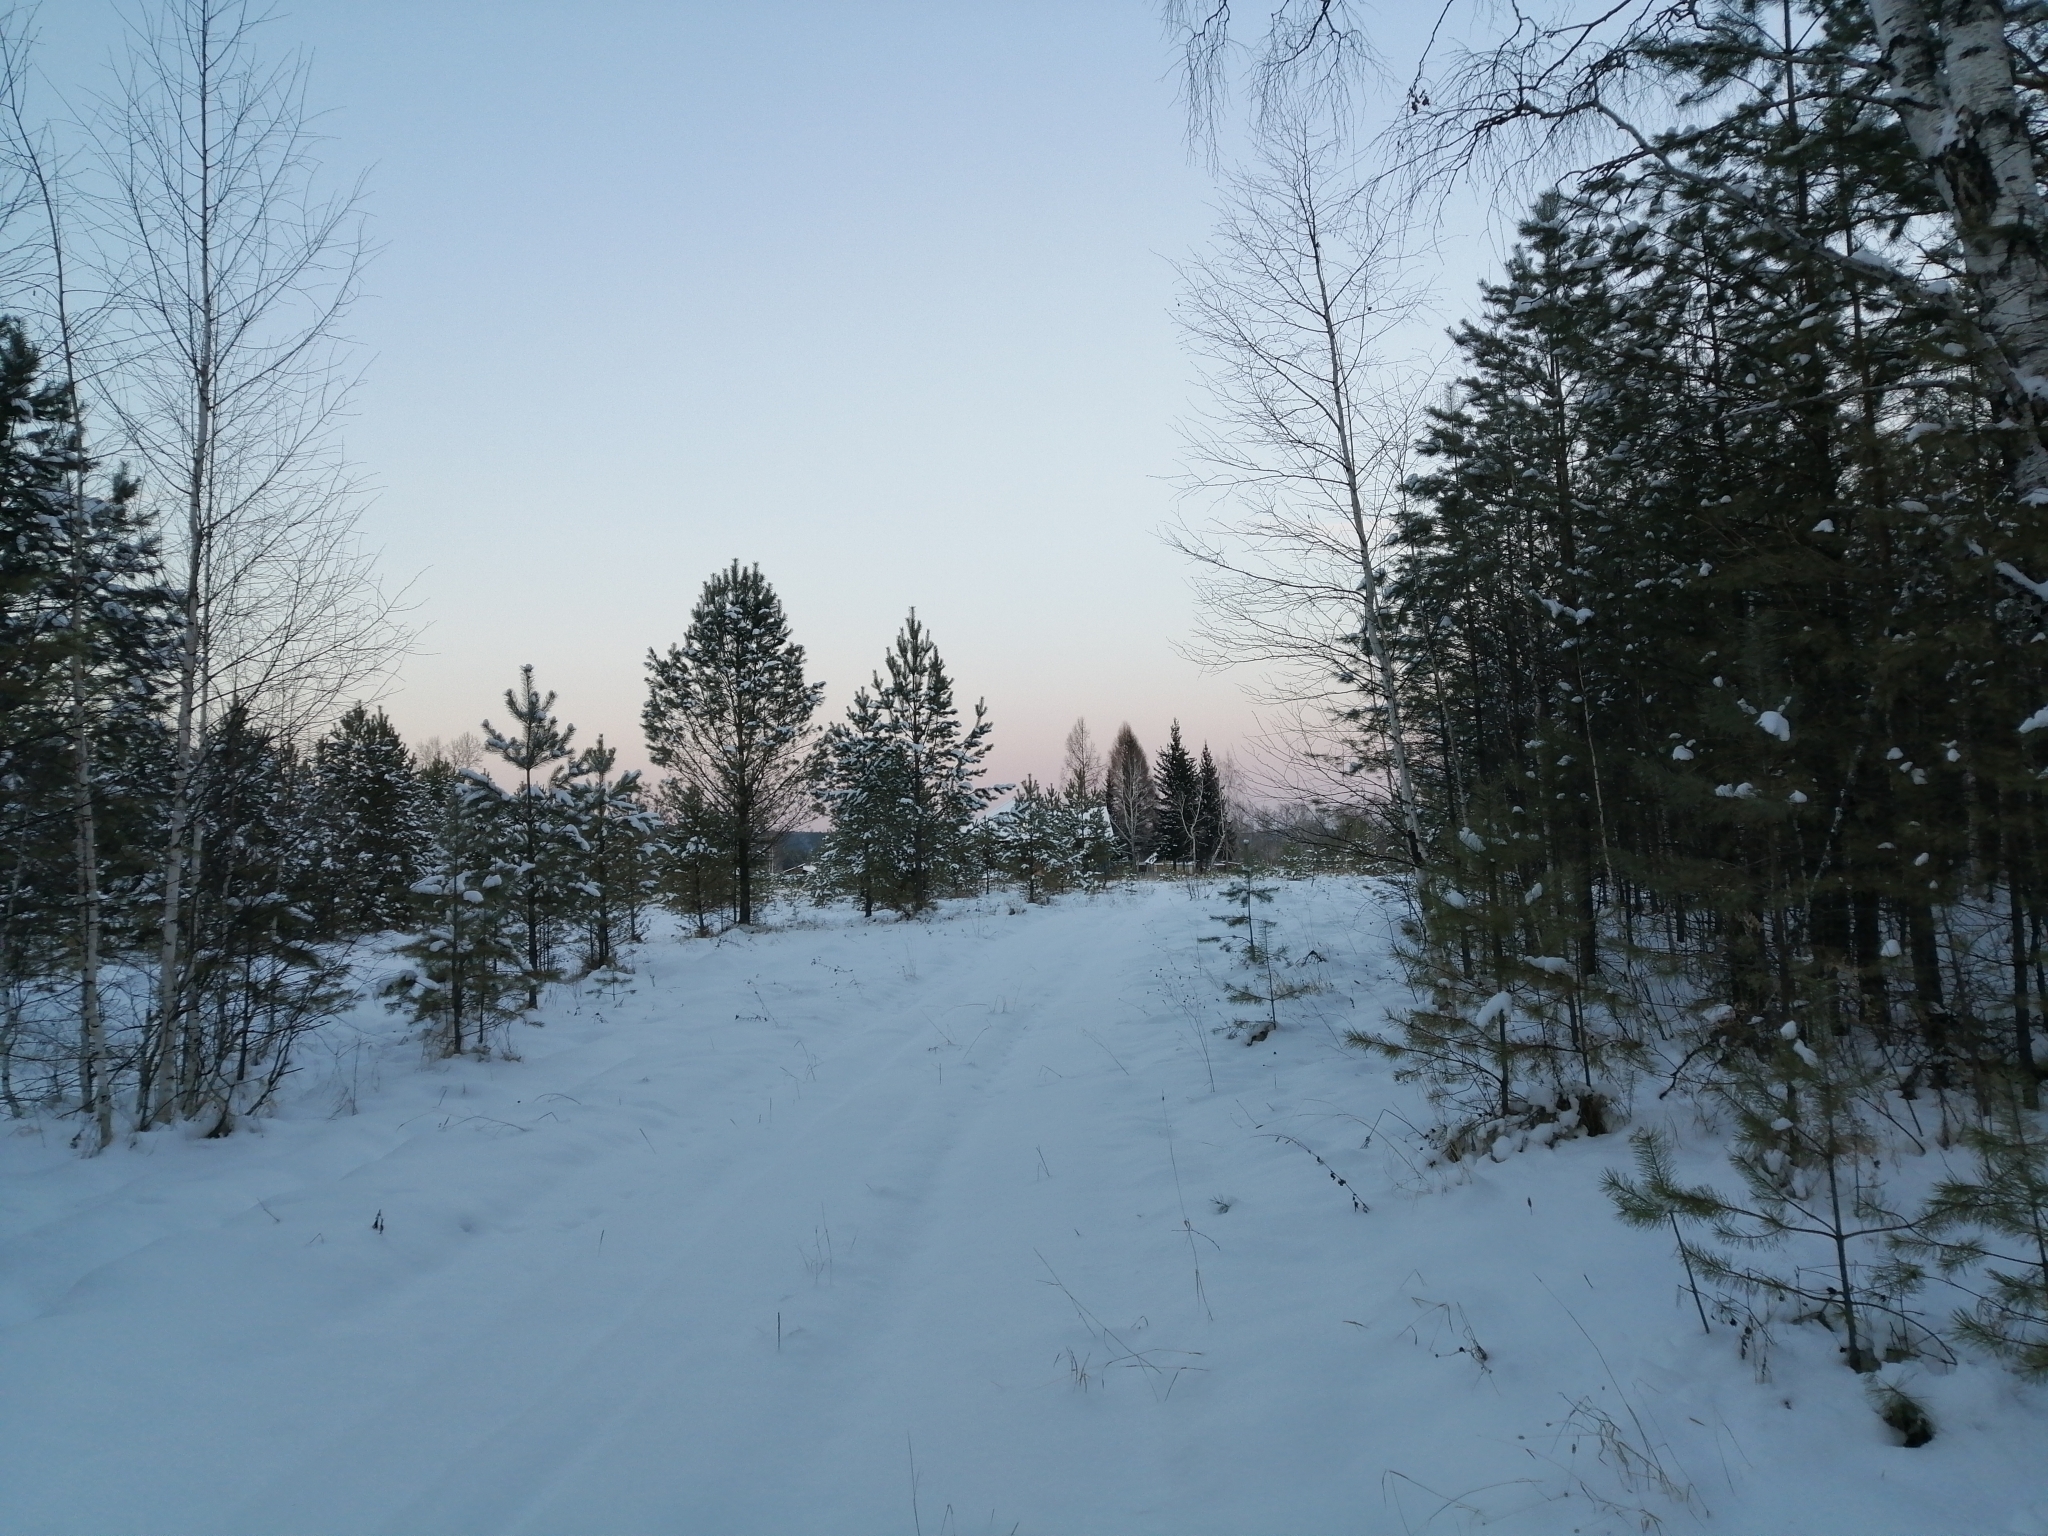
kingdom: Plantae
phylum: Tracheophyta
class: Pinopsida
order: Pinales
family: Pinaceae
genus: Pinus
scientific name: Pinus sylvestris
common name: Scots pine
